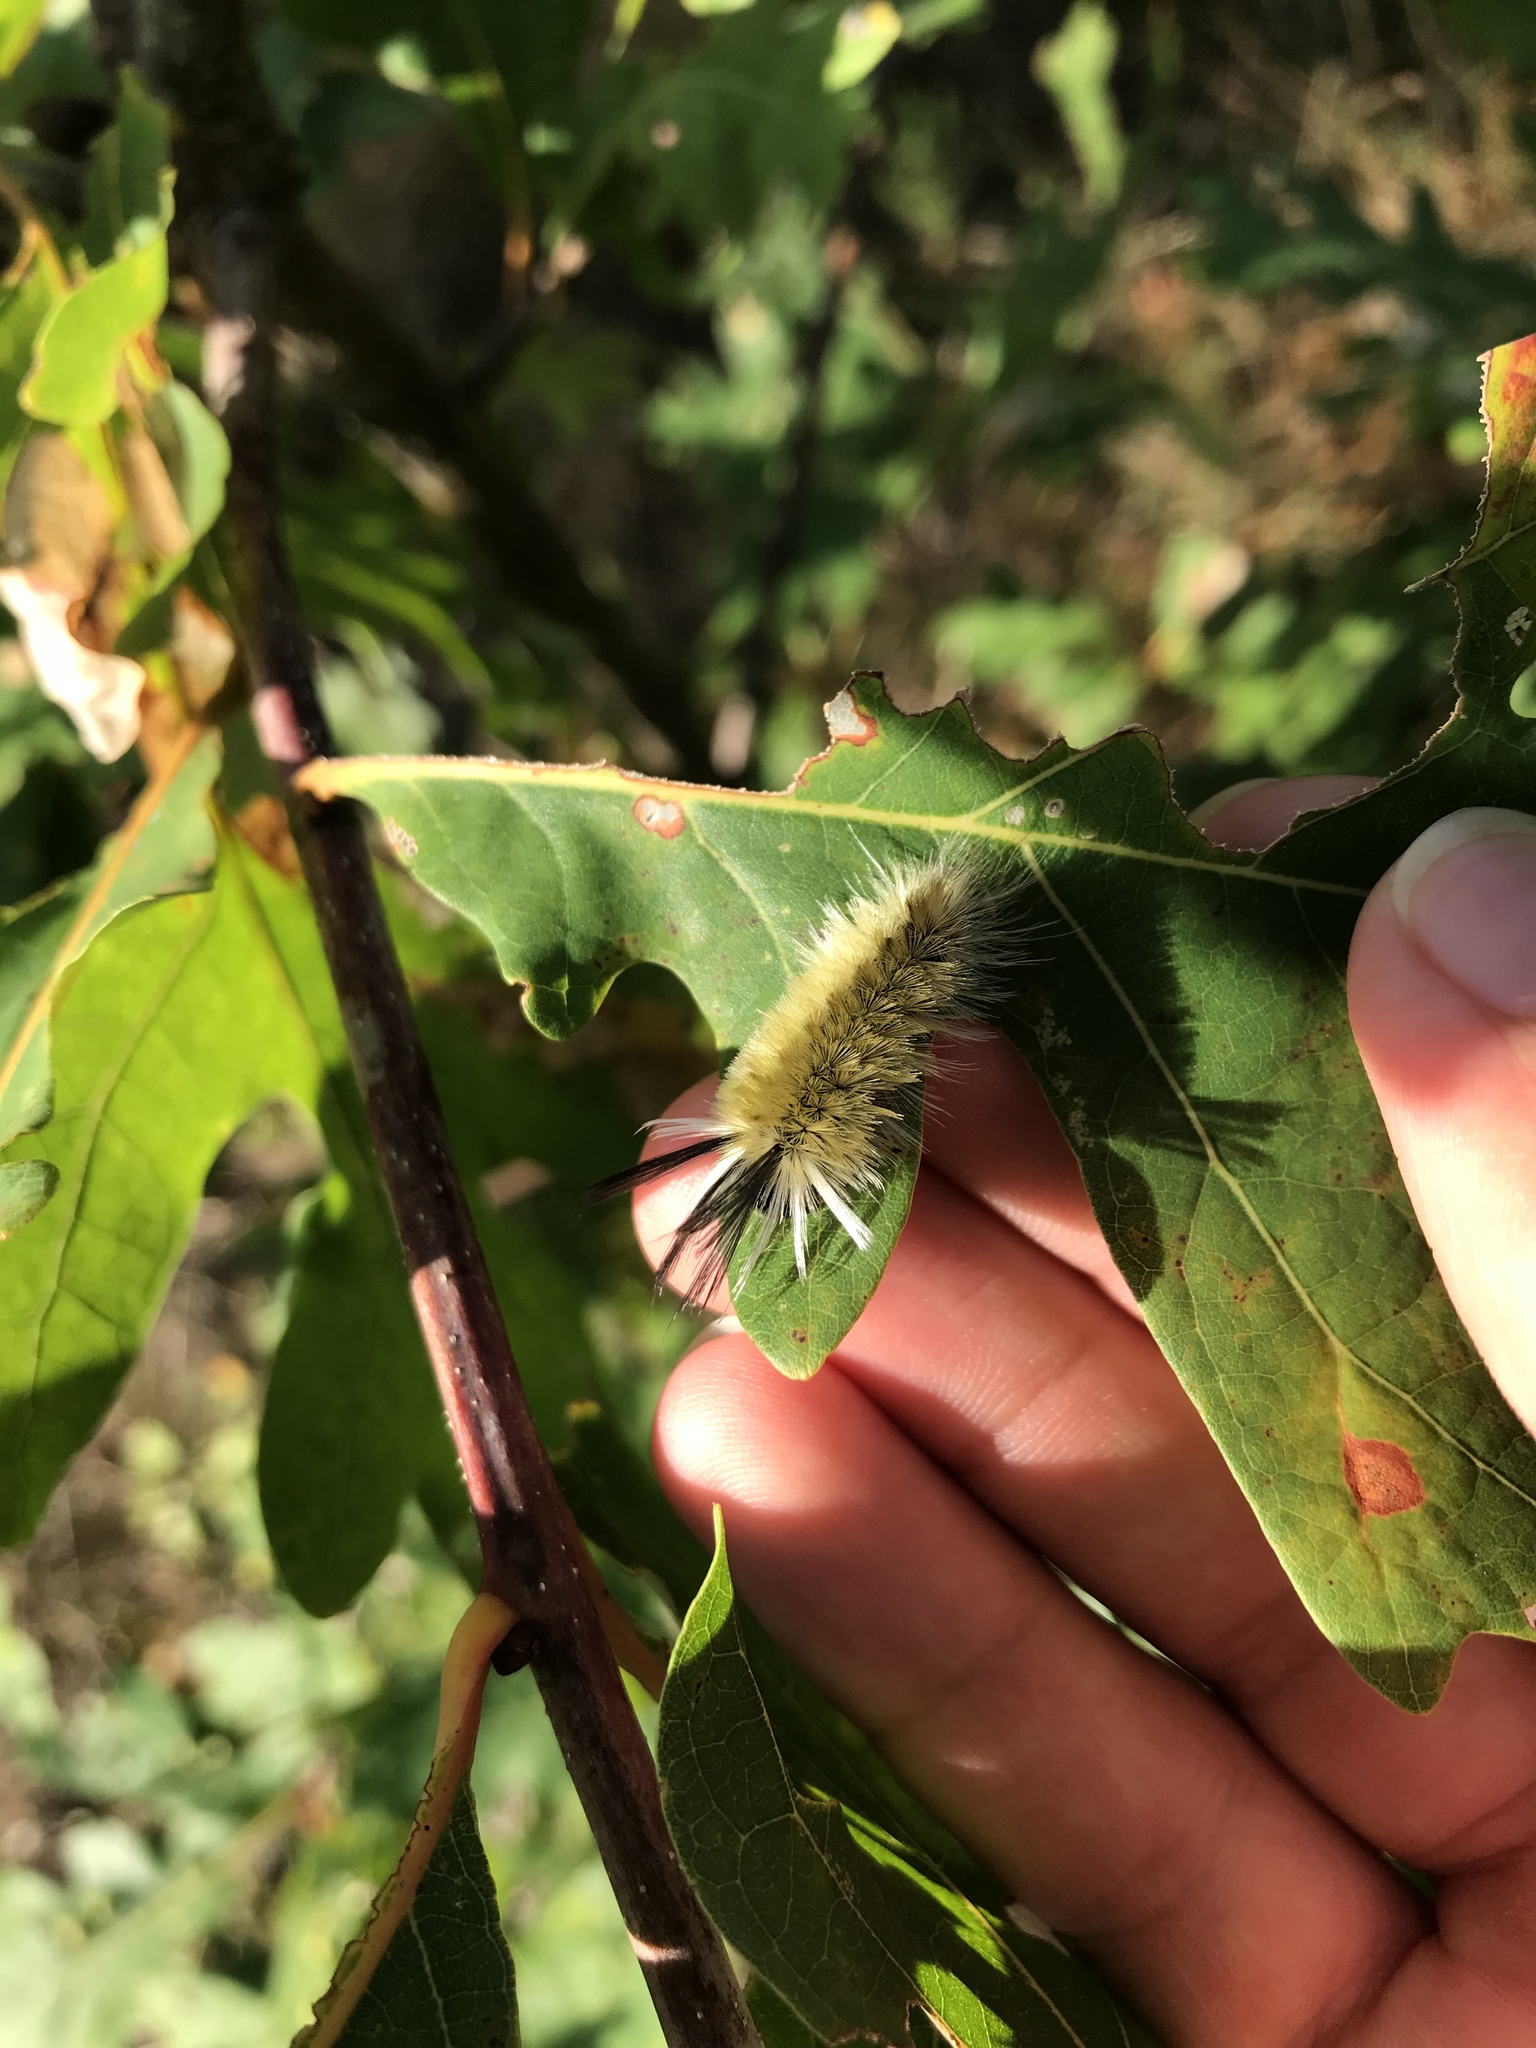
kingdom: Animalia
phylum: Arthropoda
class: Insecta
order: Lepidoptera
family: Erebidae
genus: Halysidota
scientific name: Halysidota tessellaris
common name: Banded tussock moth
